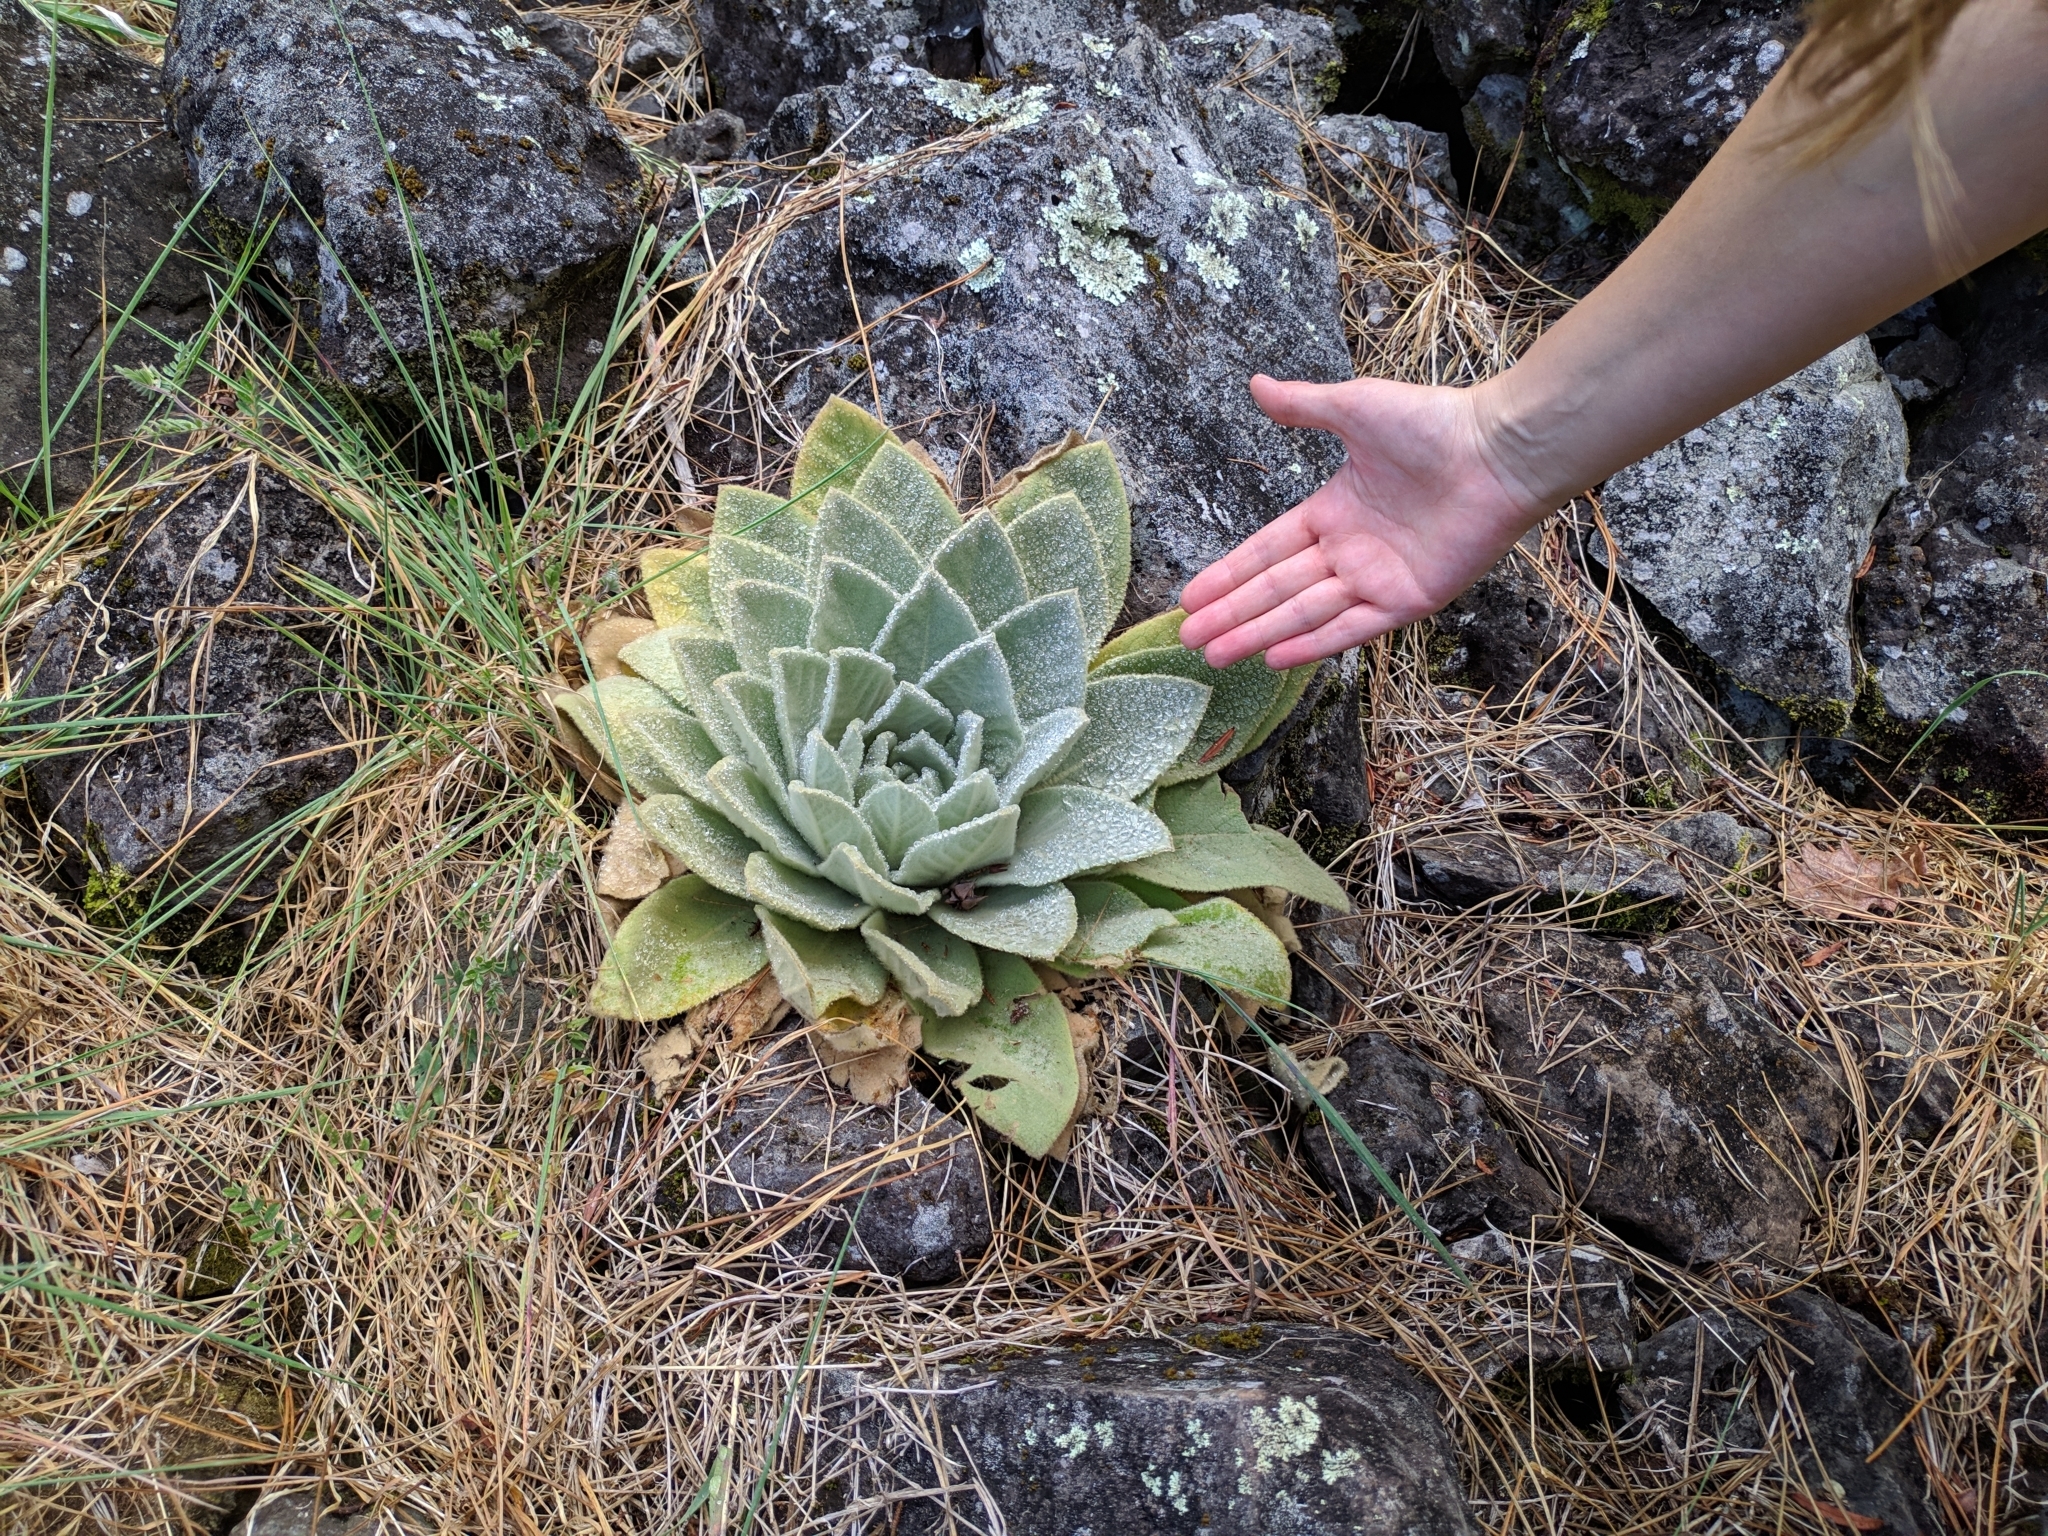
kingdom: Plantae
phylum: Tracheophyta
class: Magnoliopsida
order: Lamiales
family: Scrophulariaceae
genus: Verbascum
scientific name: Verbascum thapsus
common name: Common mullein
